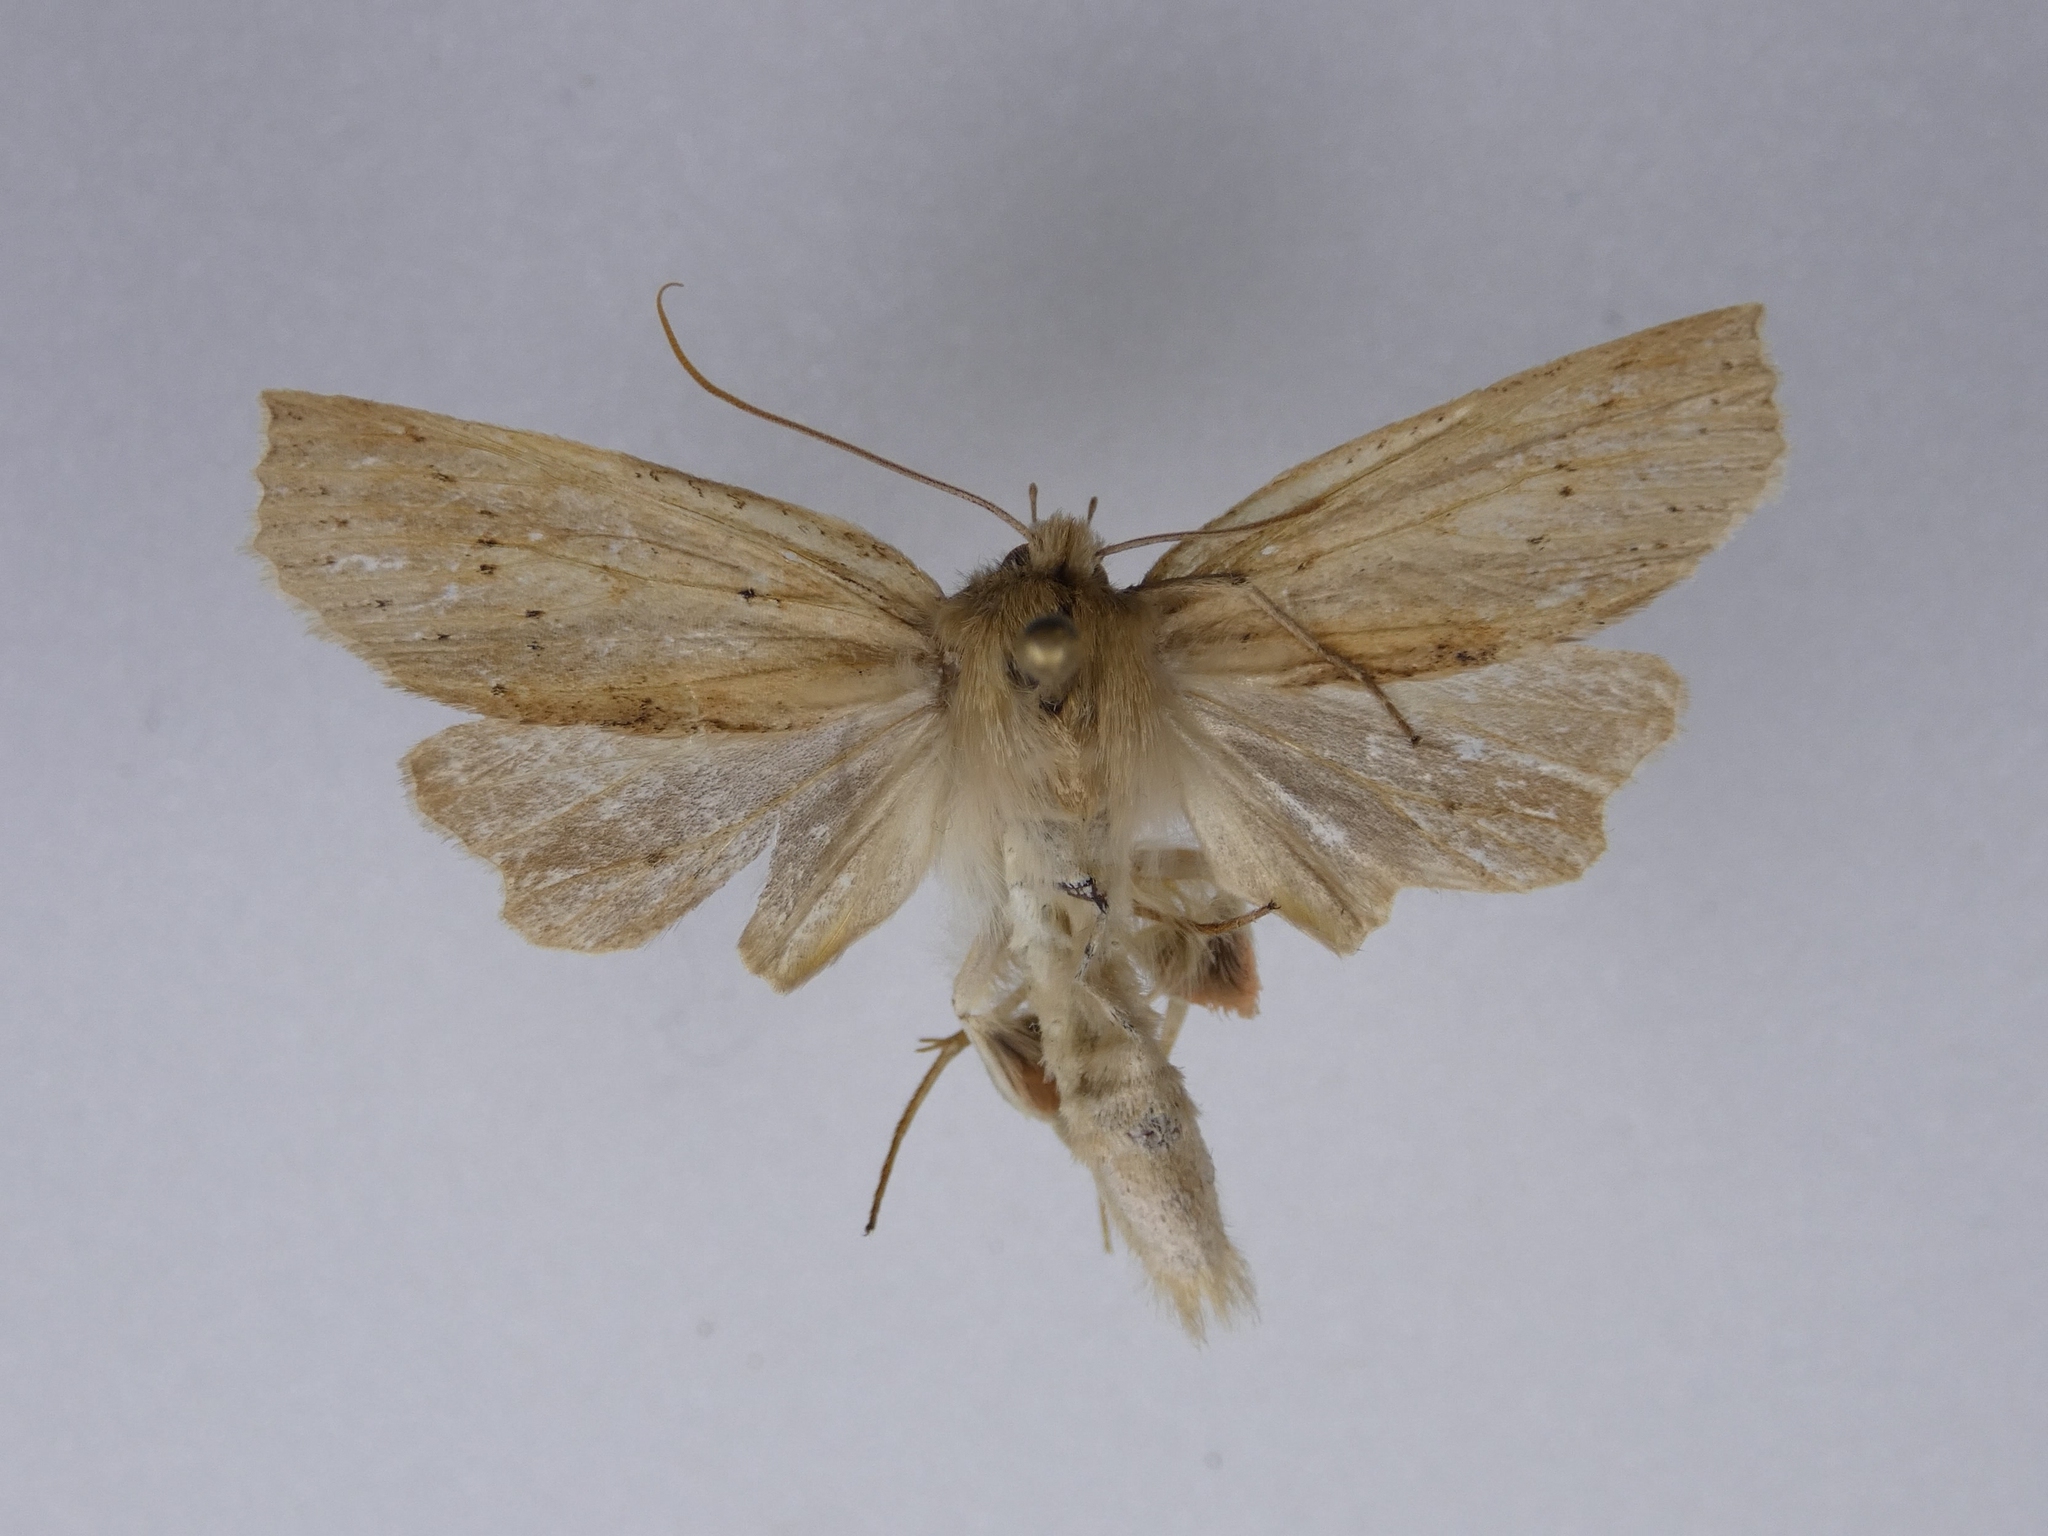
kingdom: Animalia
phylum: Arthropoda
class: Insecta
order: Lepidoptera
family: Geometridae
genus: Declana
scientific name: Declana leptomera
